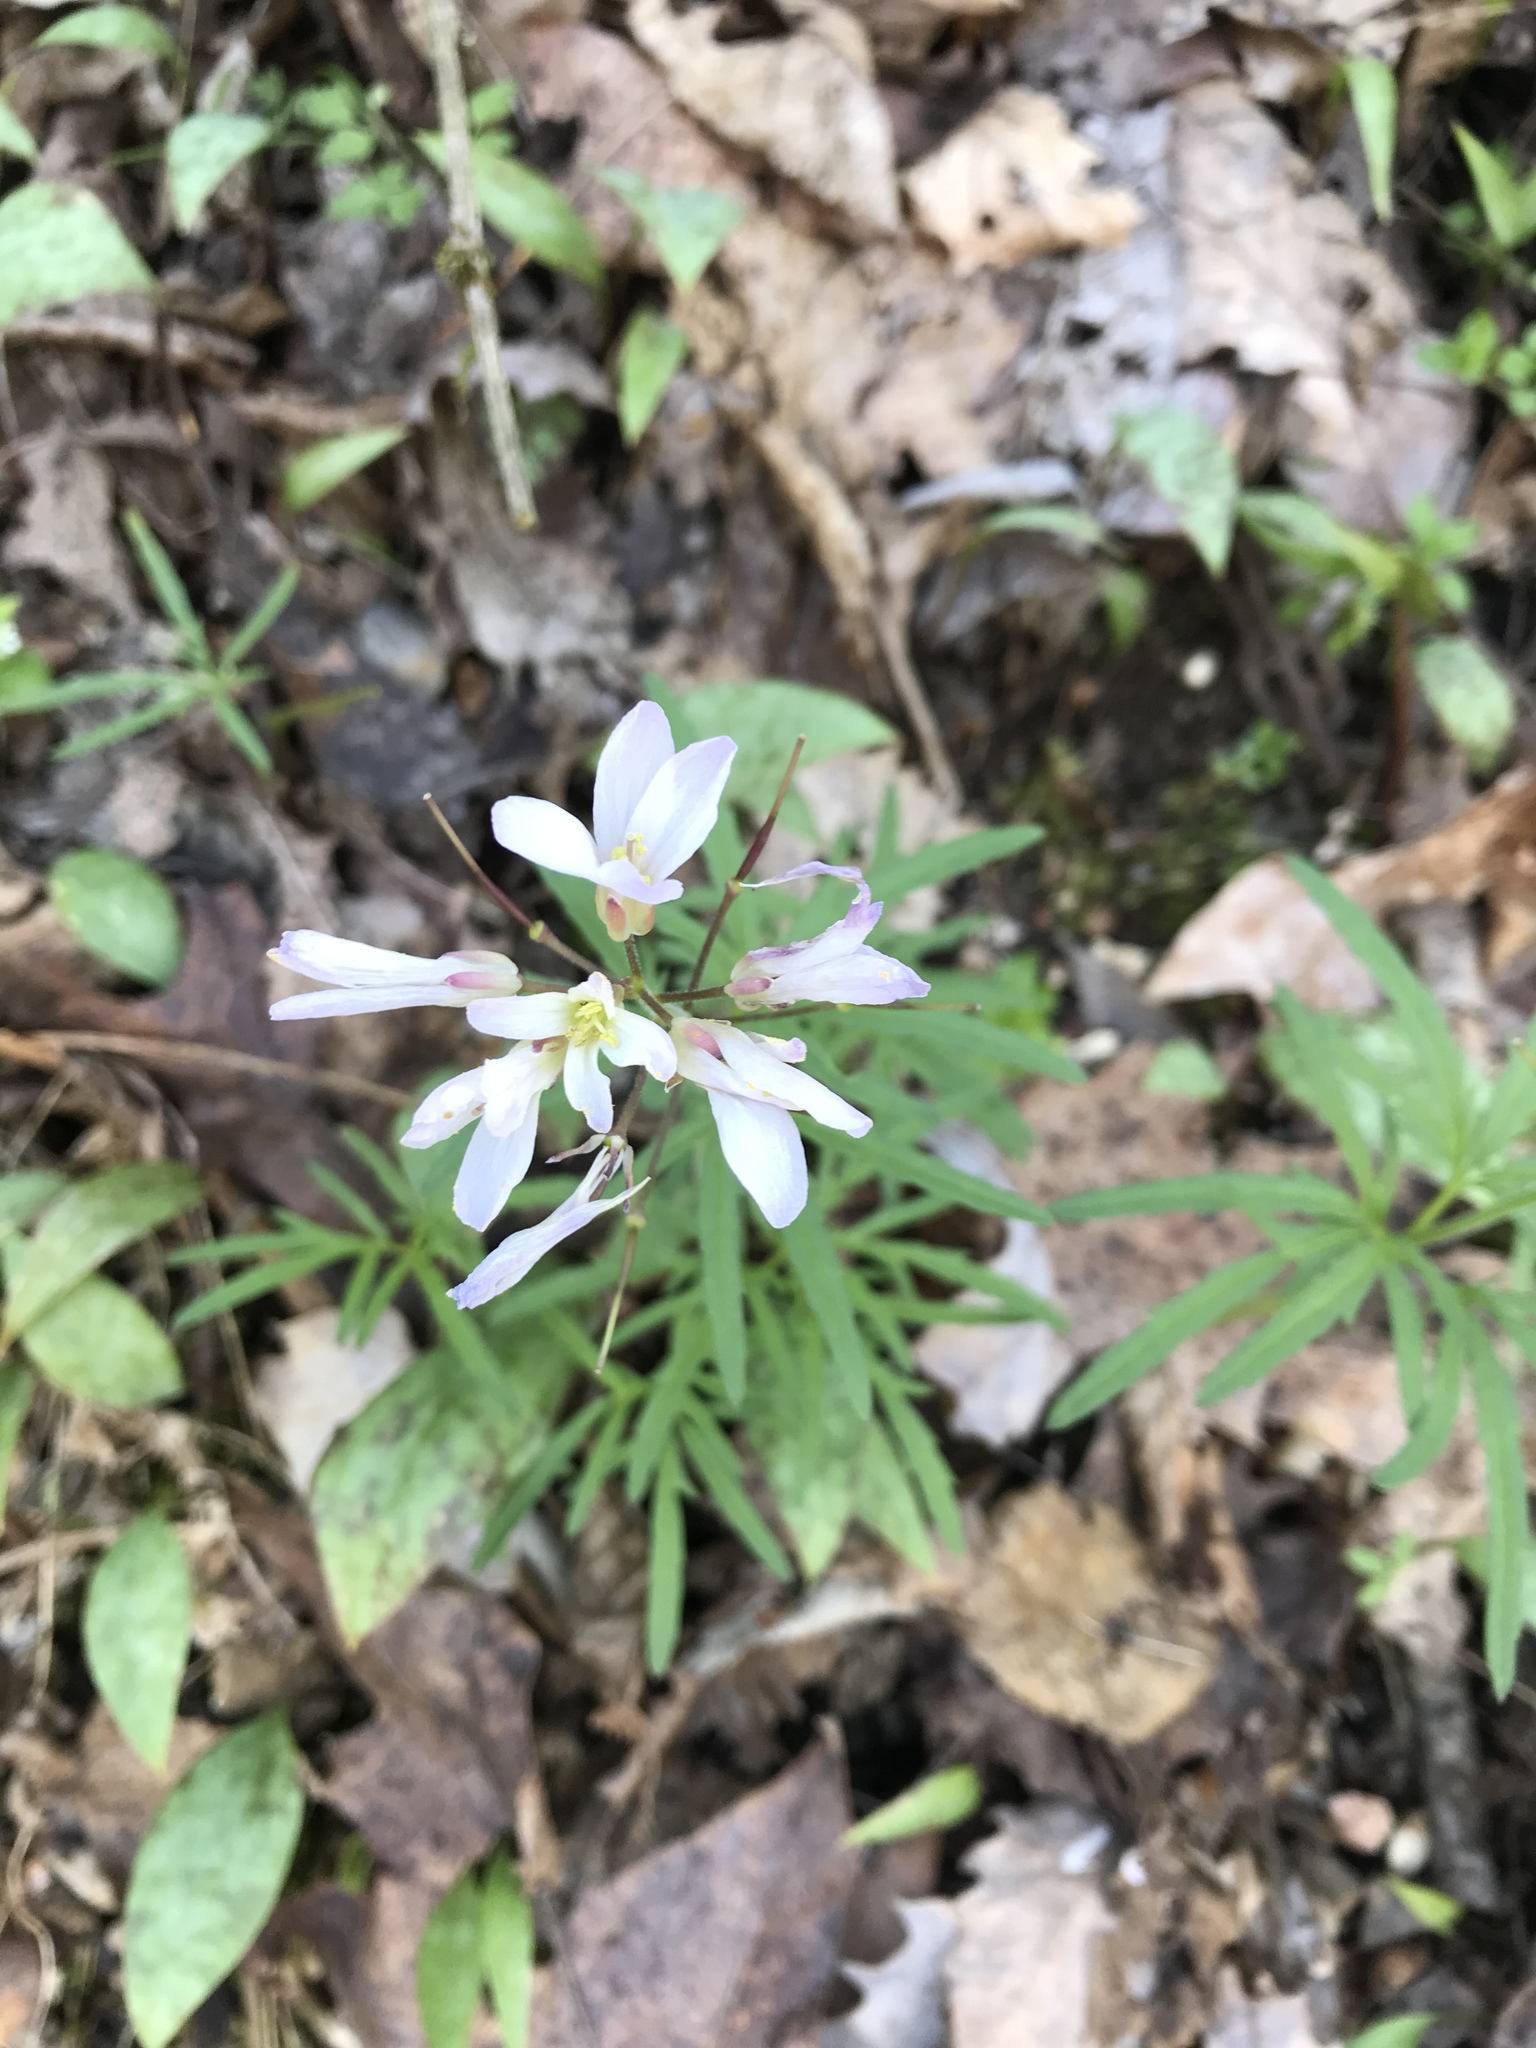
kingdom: Plantae
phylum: Tracheophyta
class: Magnoliopsida
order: Brassicales
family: Brassicaceae
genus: Cardamine
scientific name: Cardamine concatenata
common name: Cut-leaf toothcup
